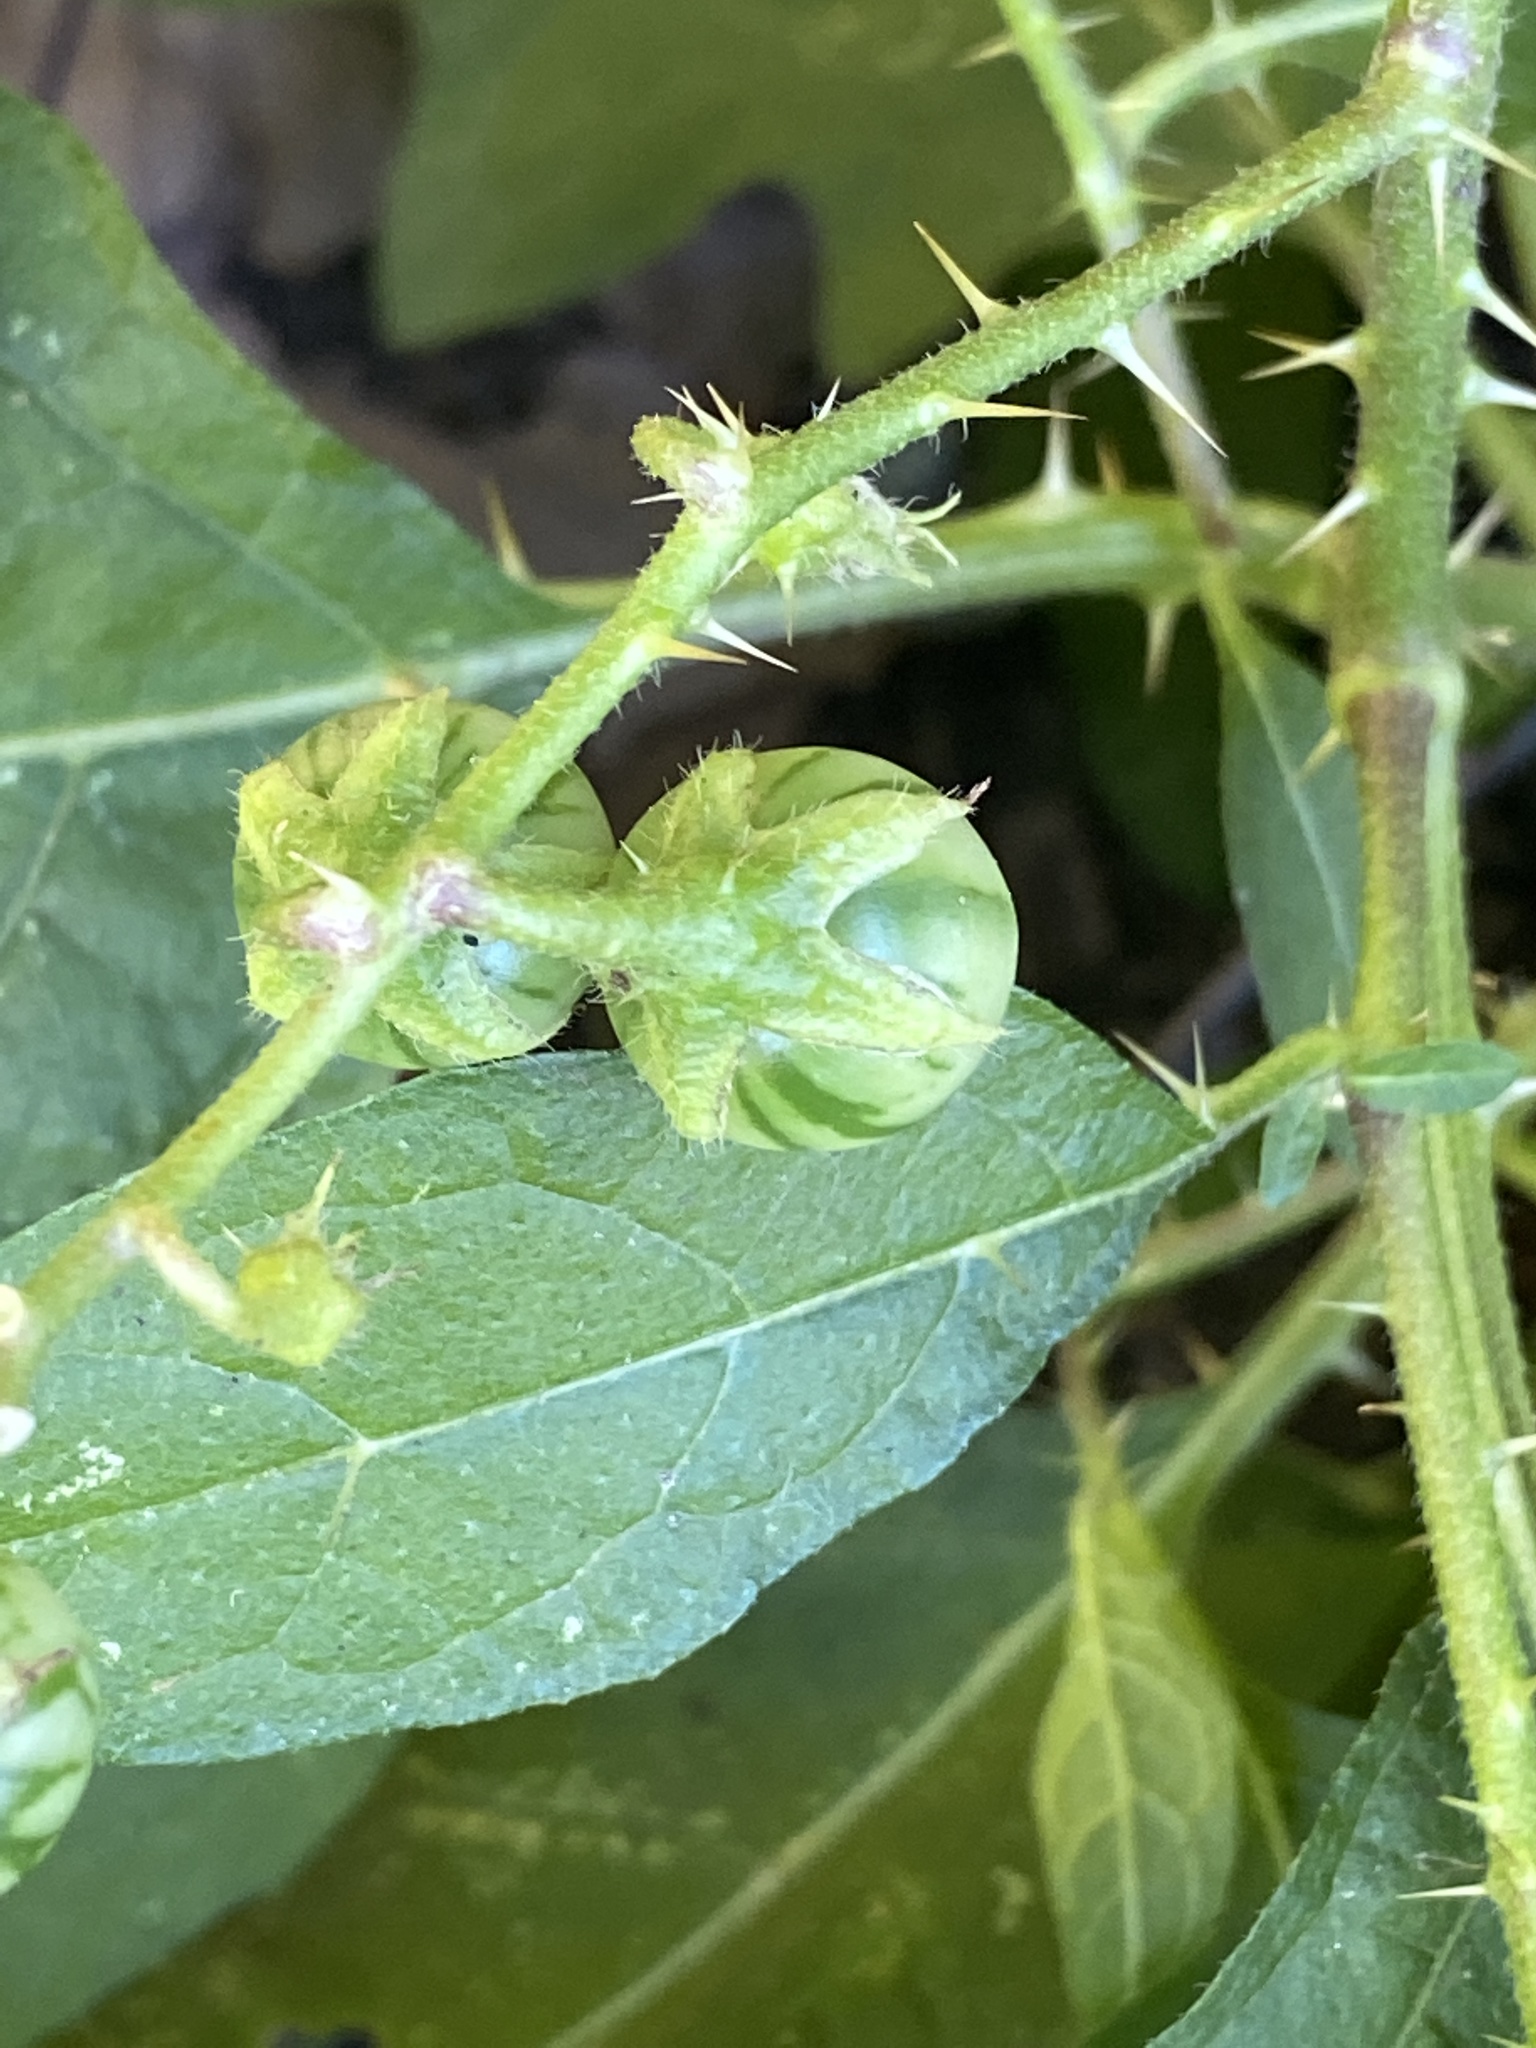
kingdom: Plantae
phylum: Tracheophyta
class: Magnoliopsida
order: Solanales
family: Solanaceae
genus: Solanum
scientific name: Solanum carolinense
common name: Horse-nettle
